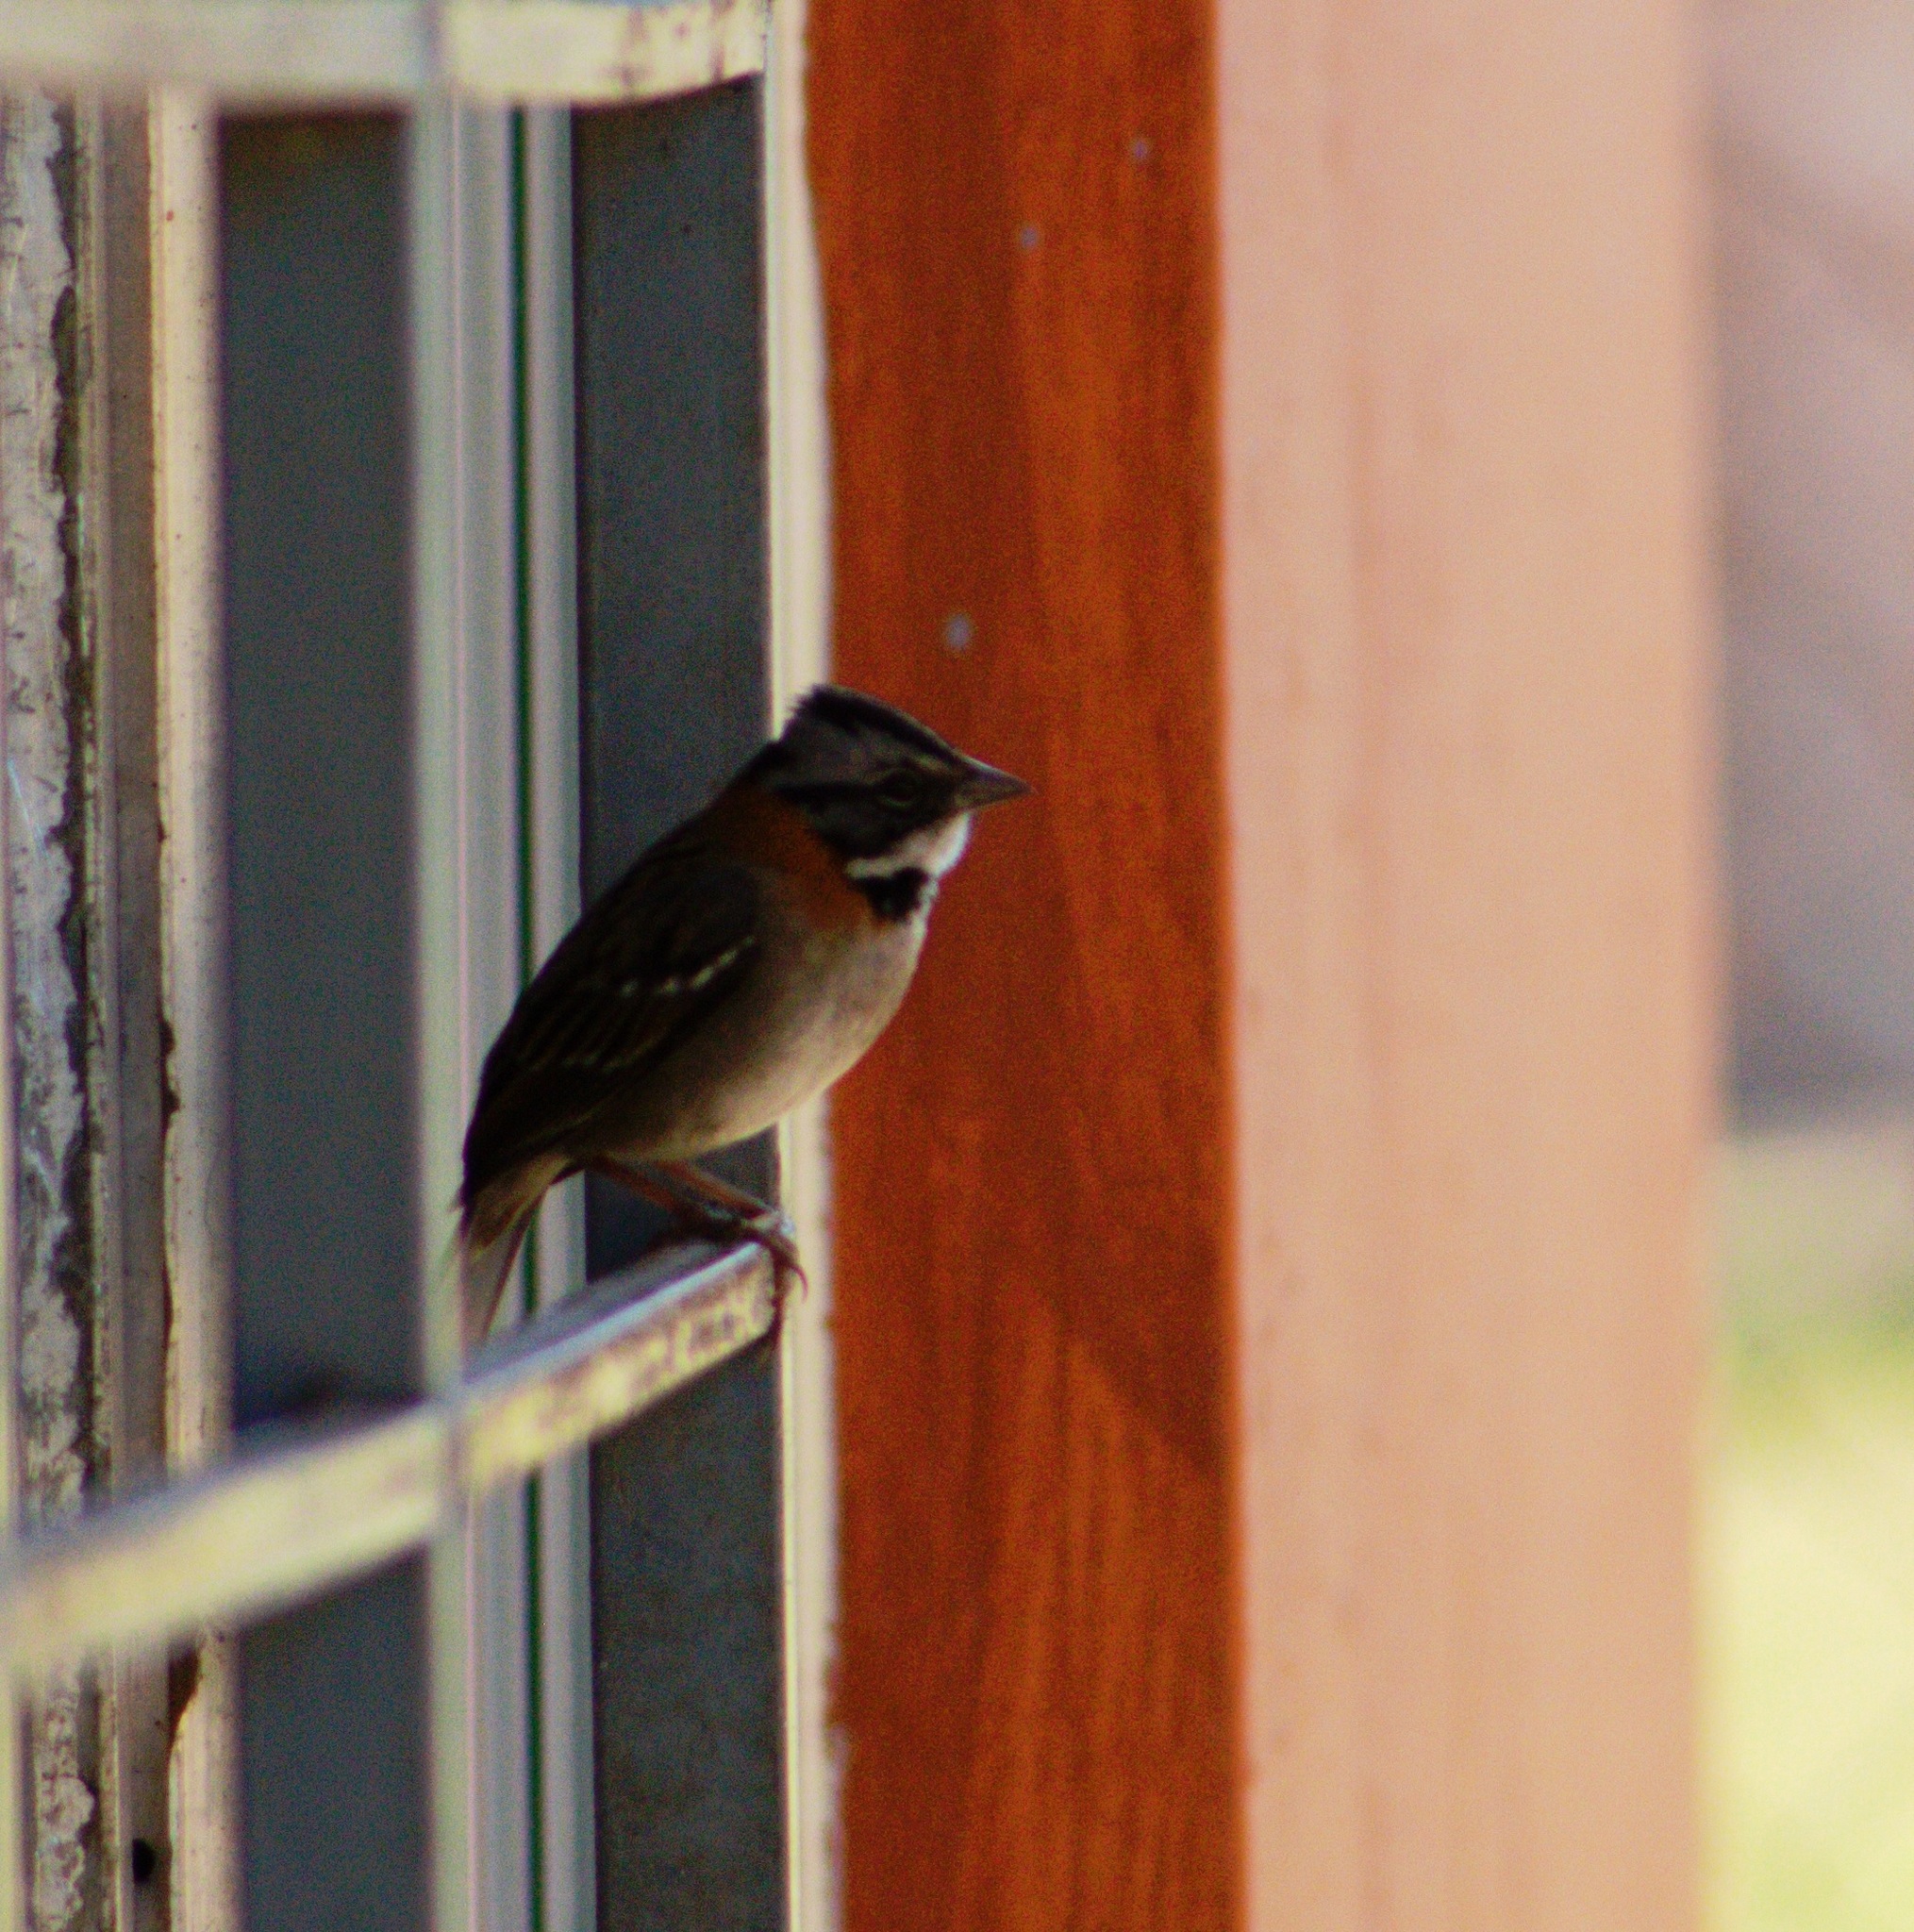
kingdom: Animalia
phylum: Chordata
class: Aves
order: Passeriformes
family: Passerellidae
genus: Zonotrichia
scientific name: Zonotrichia capensis
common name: Rufous-collared sparrow
